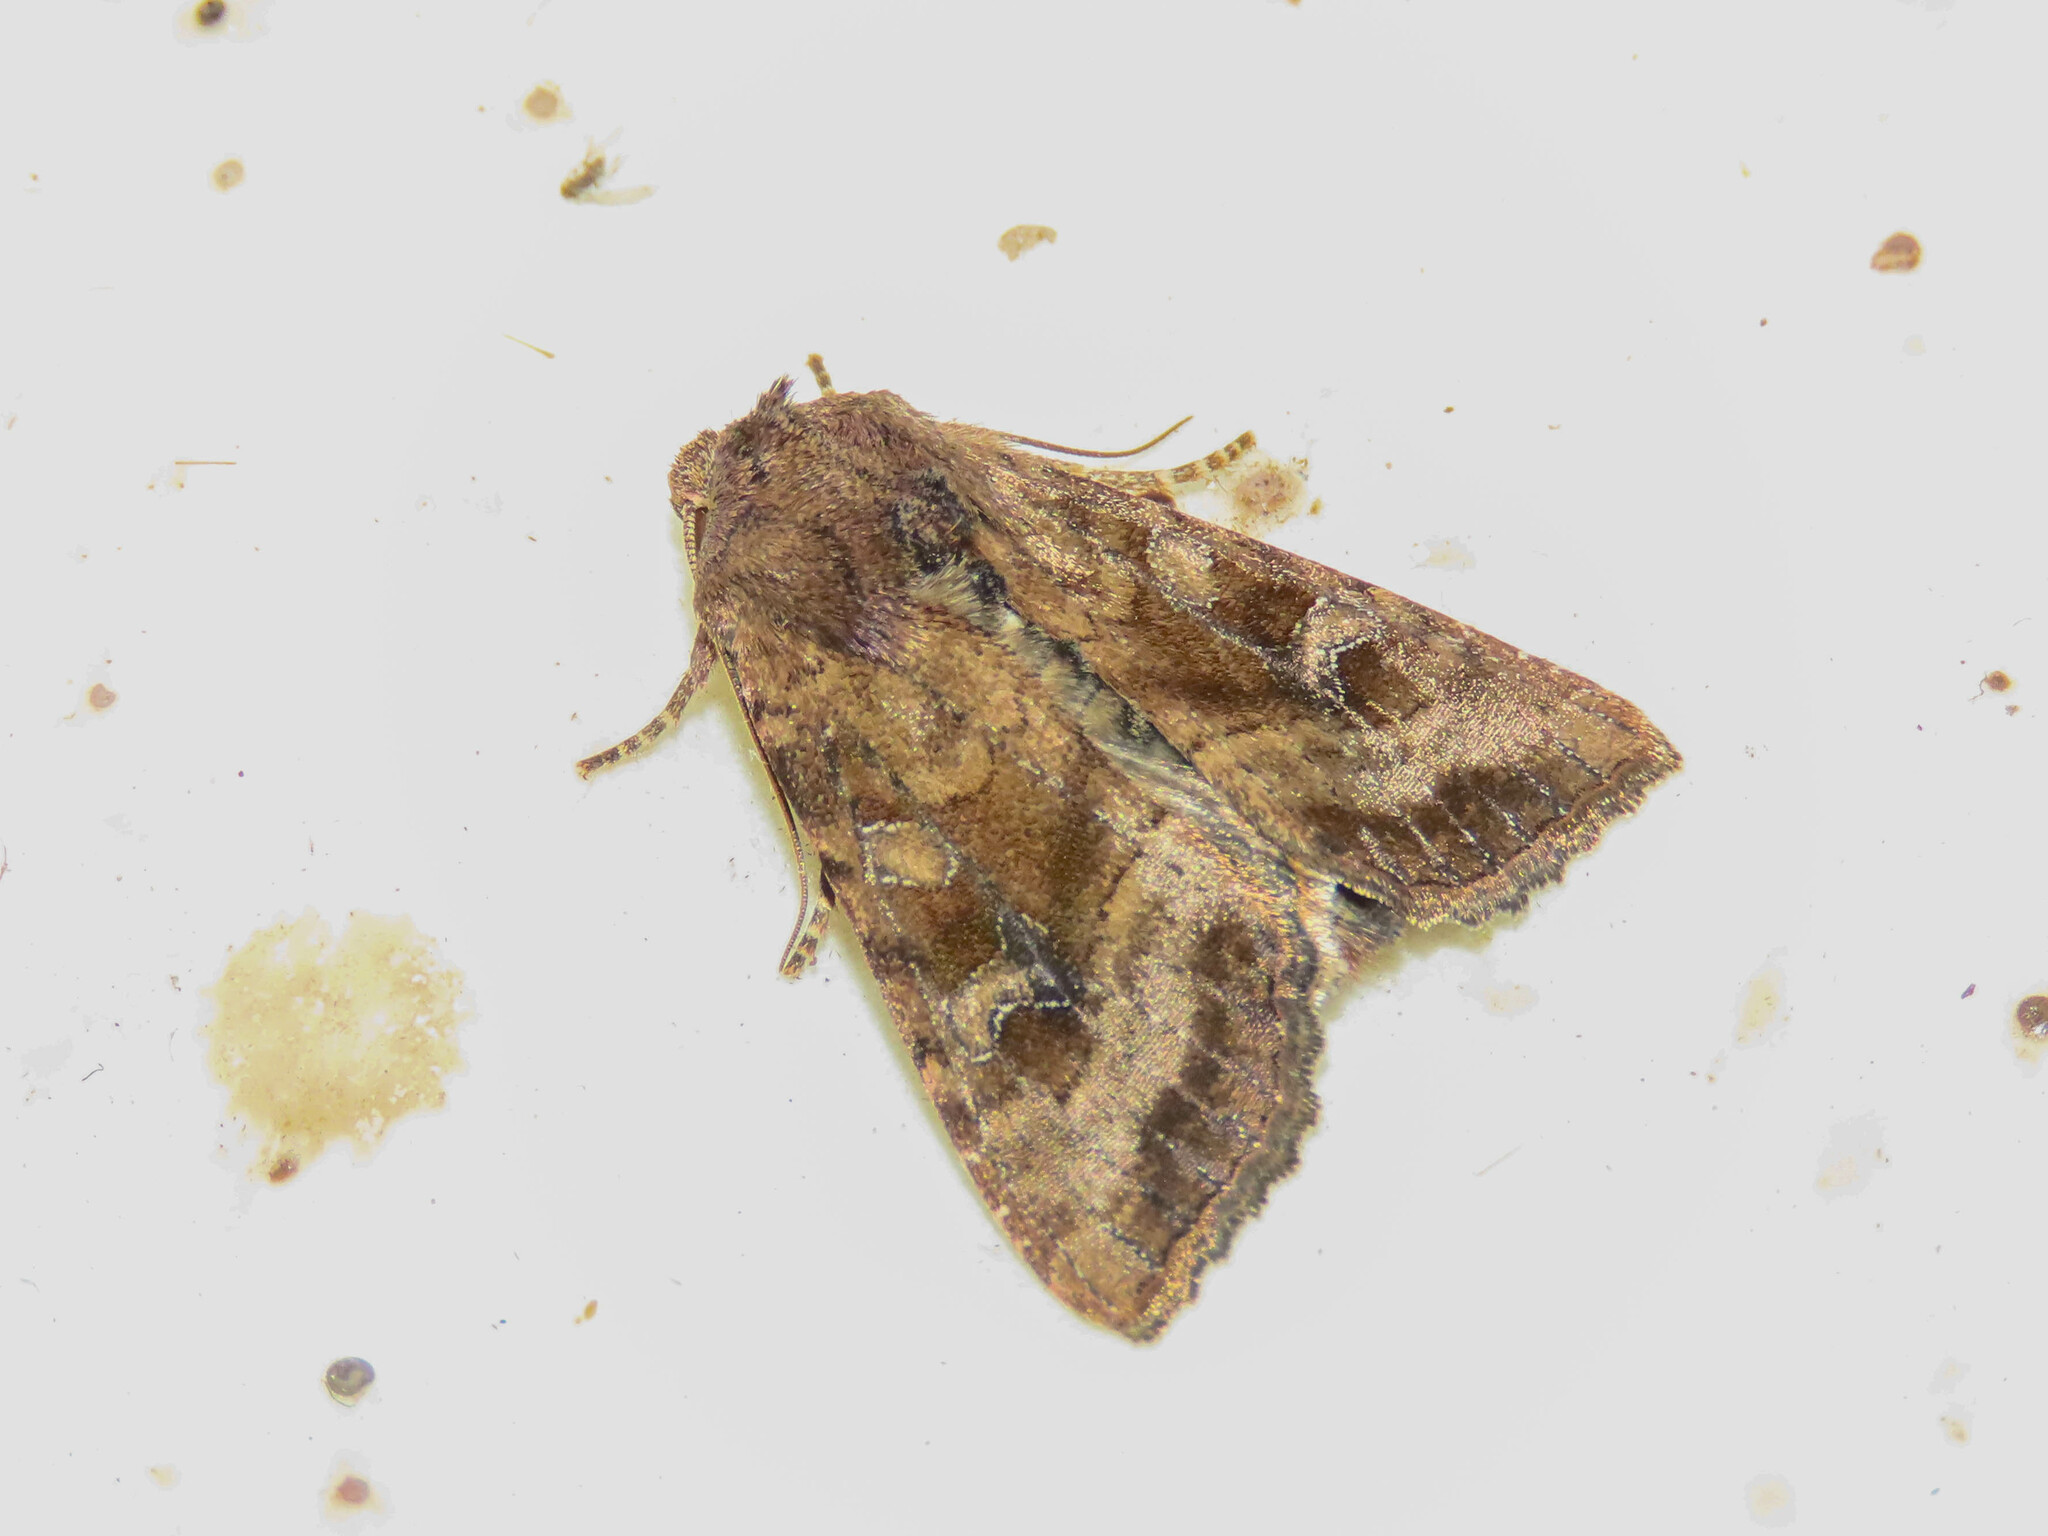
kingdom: Animalia
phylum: Arthropoda
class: Insecta
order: Lepidoptera
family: Noctuidae
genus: Loscopia
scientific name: Loscopia velata
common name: Veiled ear moth
